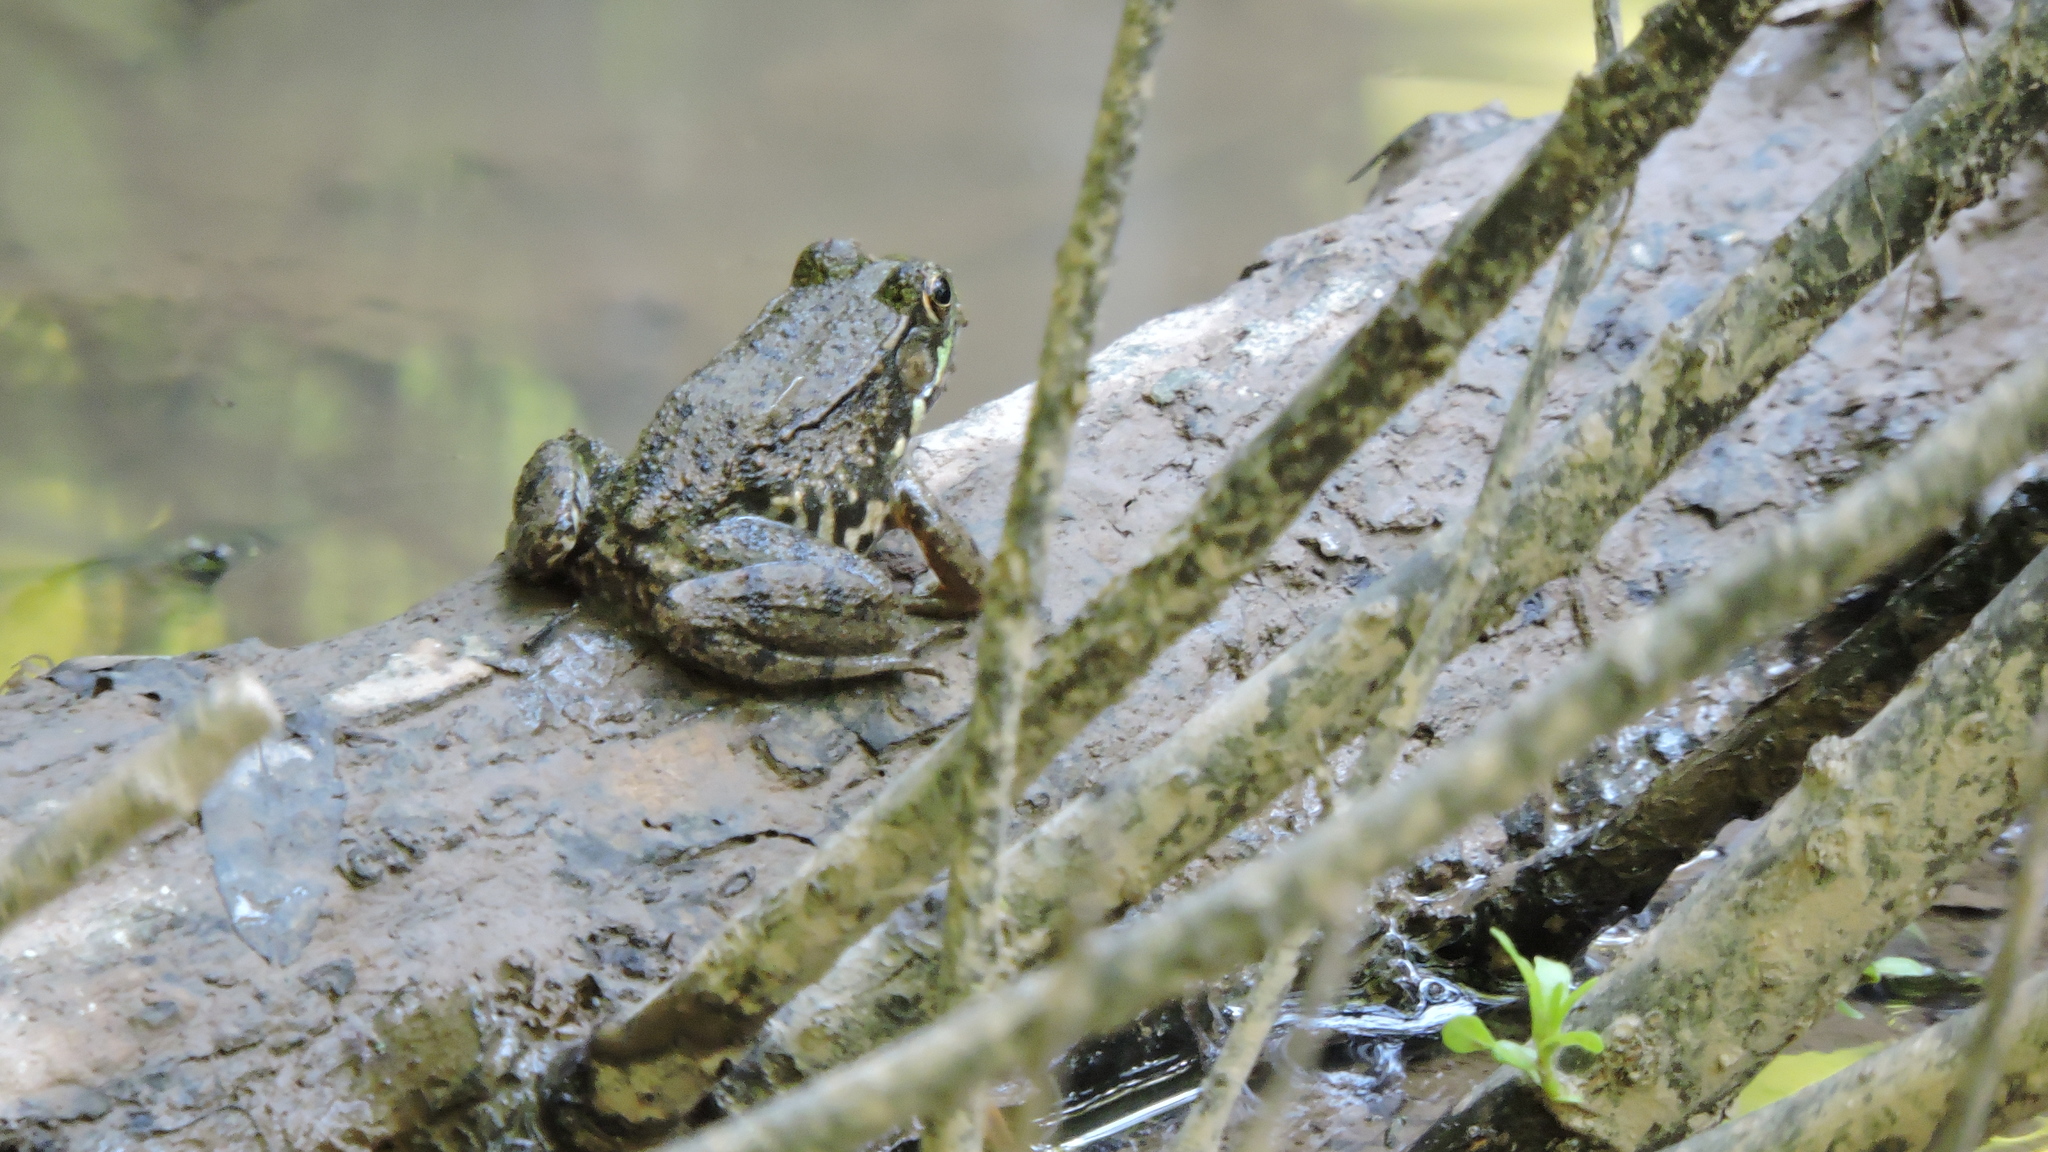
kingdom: Animalia
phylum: Chordata
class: Amphibia
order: Anura
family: Ranidae
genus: Lithobates
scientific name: Lithobates clamitans
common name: Green frog
